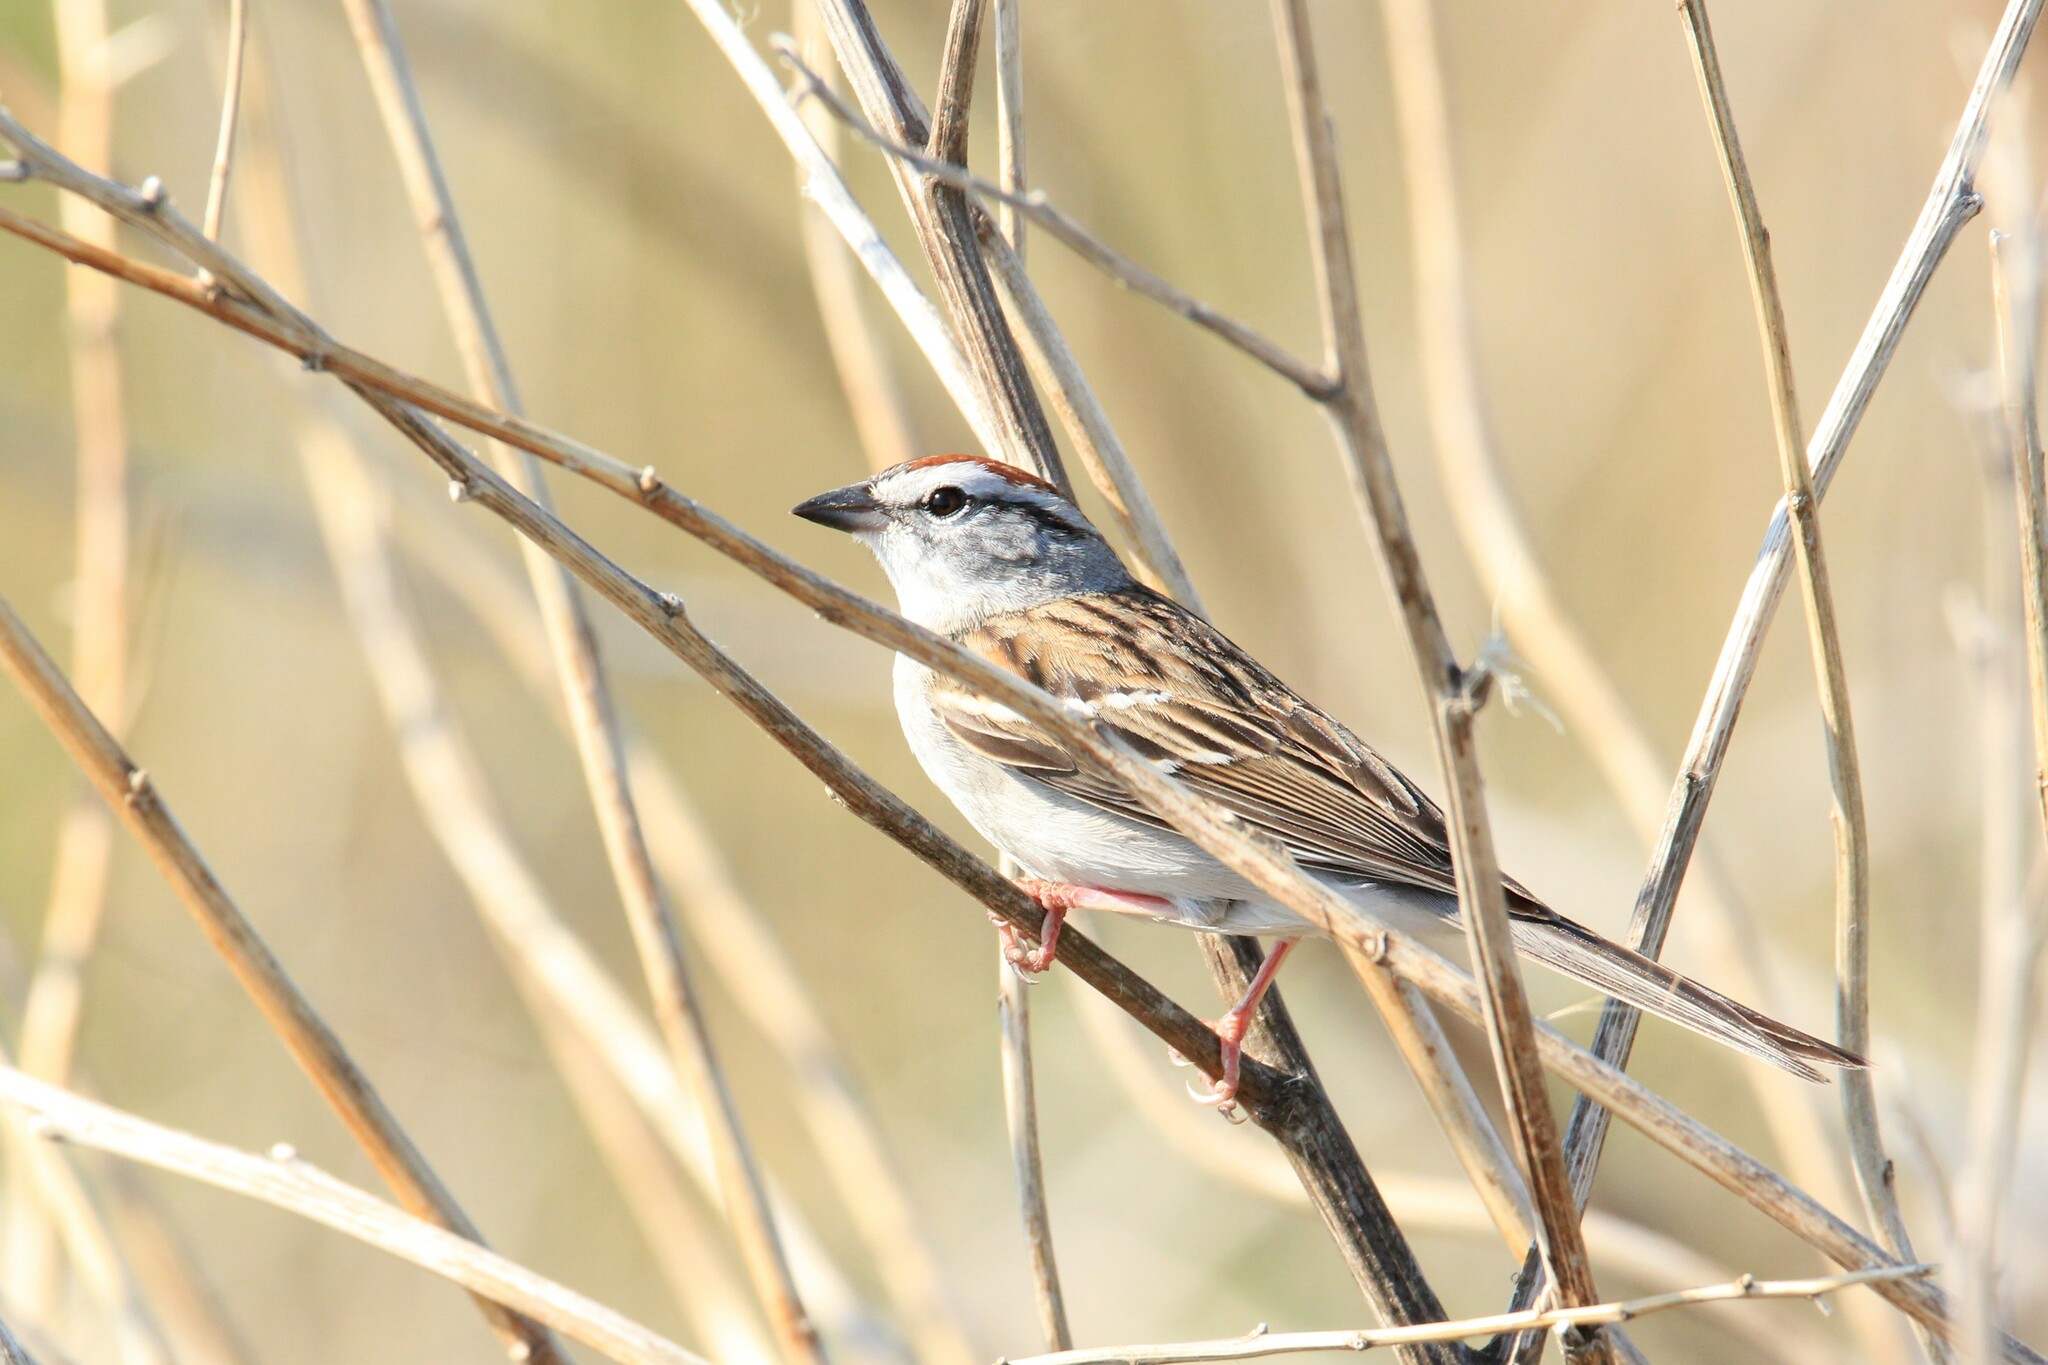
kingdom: Animalia
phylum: Chordata
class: Aves
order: Passeriformes
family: Passerellidae
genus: Spizella
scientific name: Spizella passerina
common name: Chipping sparrow
